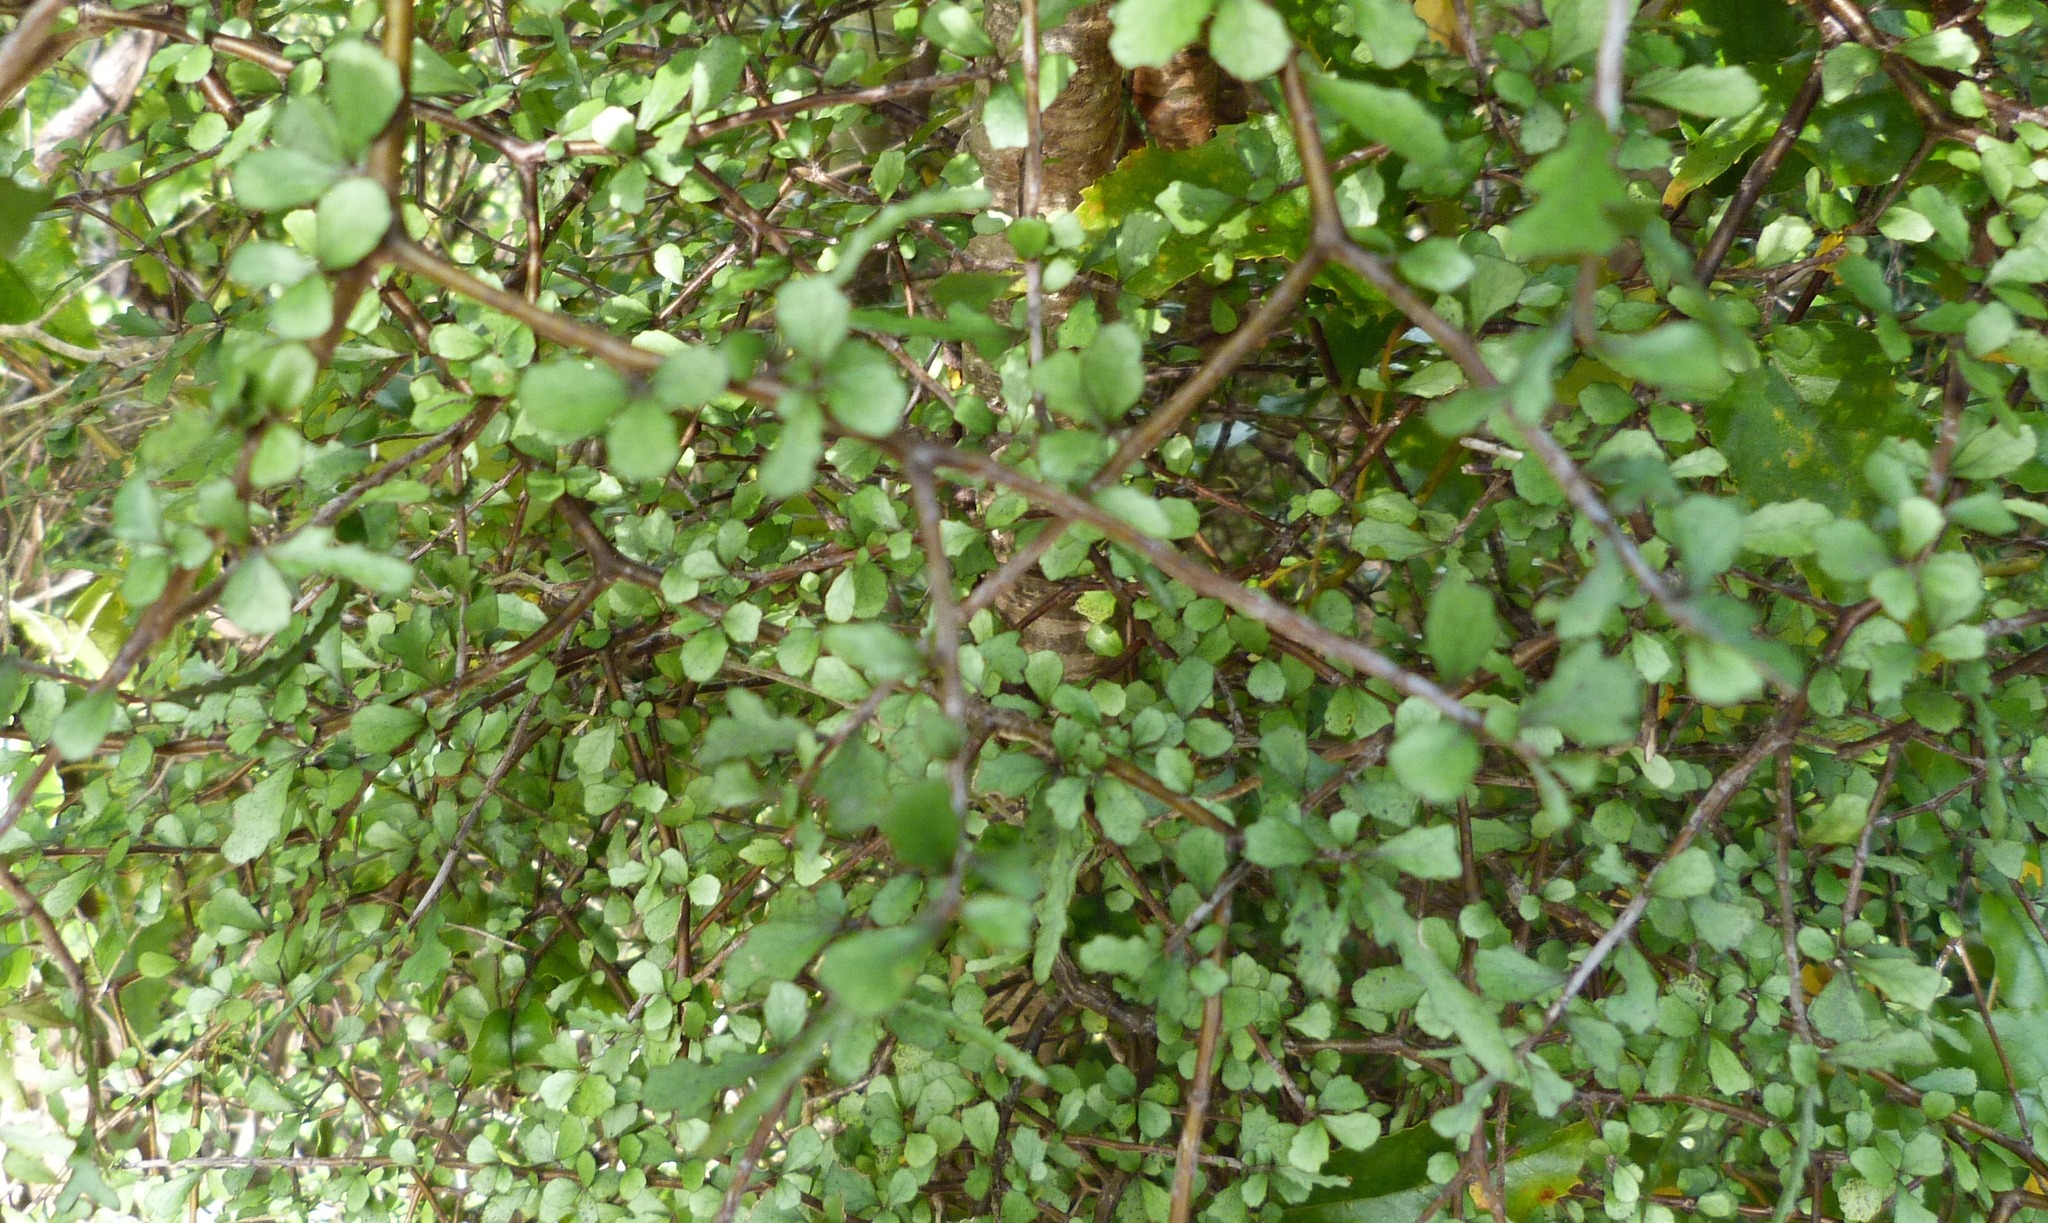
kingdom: Plantae
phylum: Tracheophyta
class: Magnoliopsida
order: Oxalidales
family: Elaeocarpaceae
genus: Elaeocarpus
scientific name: Elaeocarpus hookerianus
